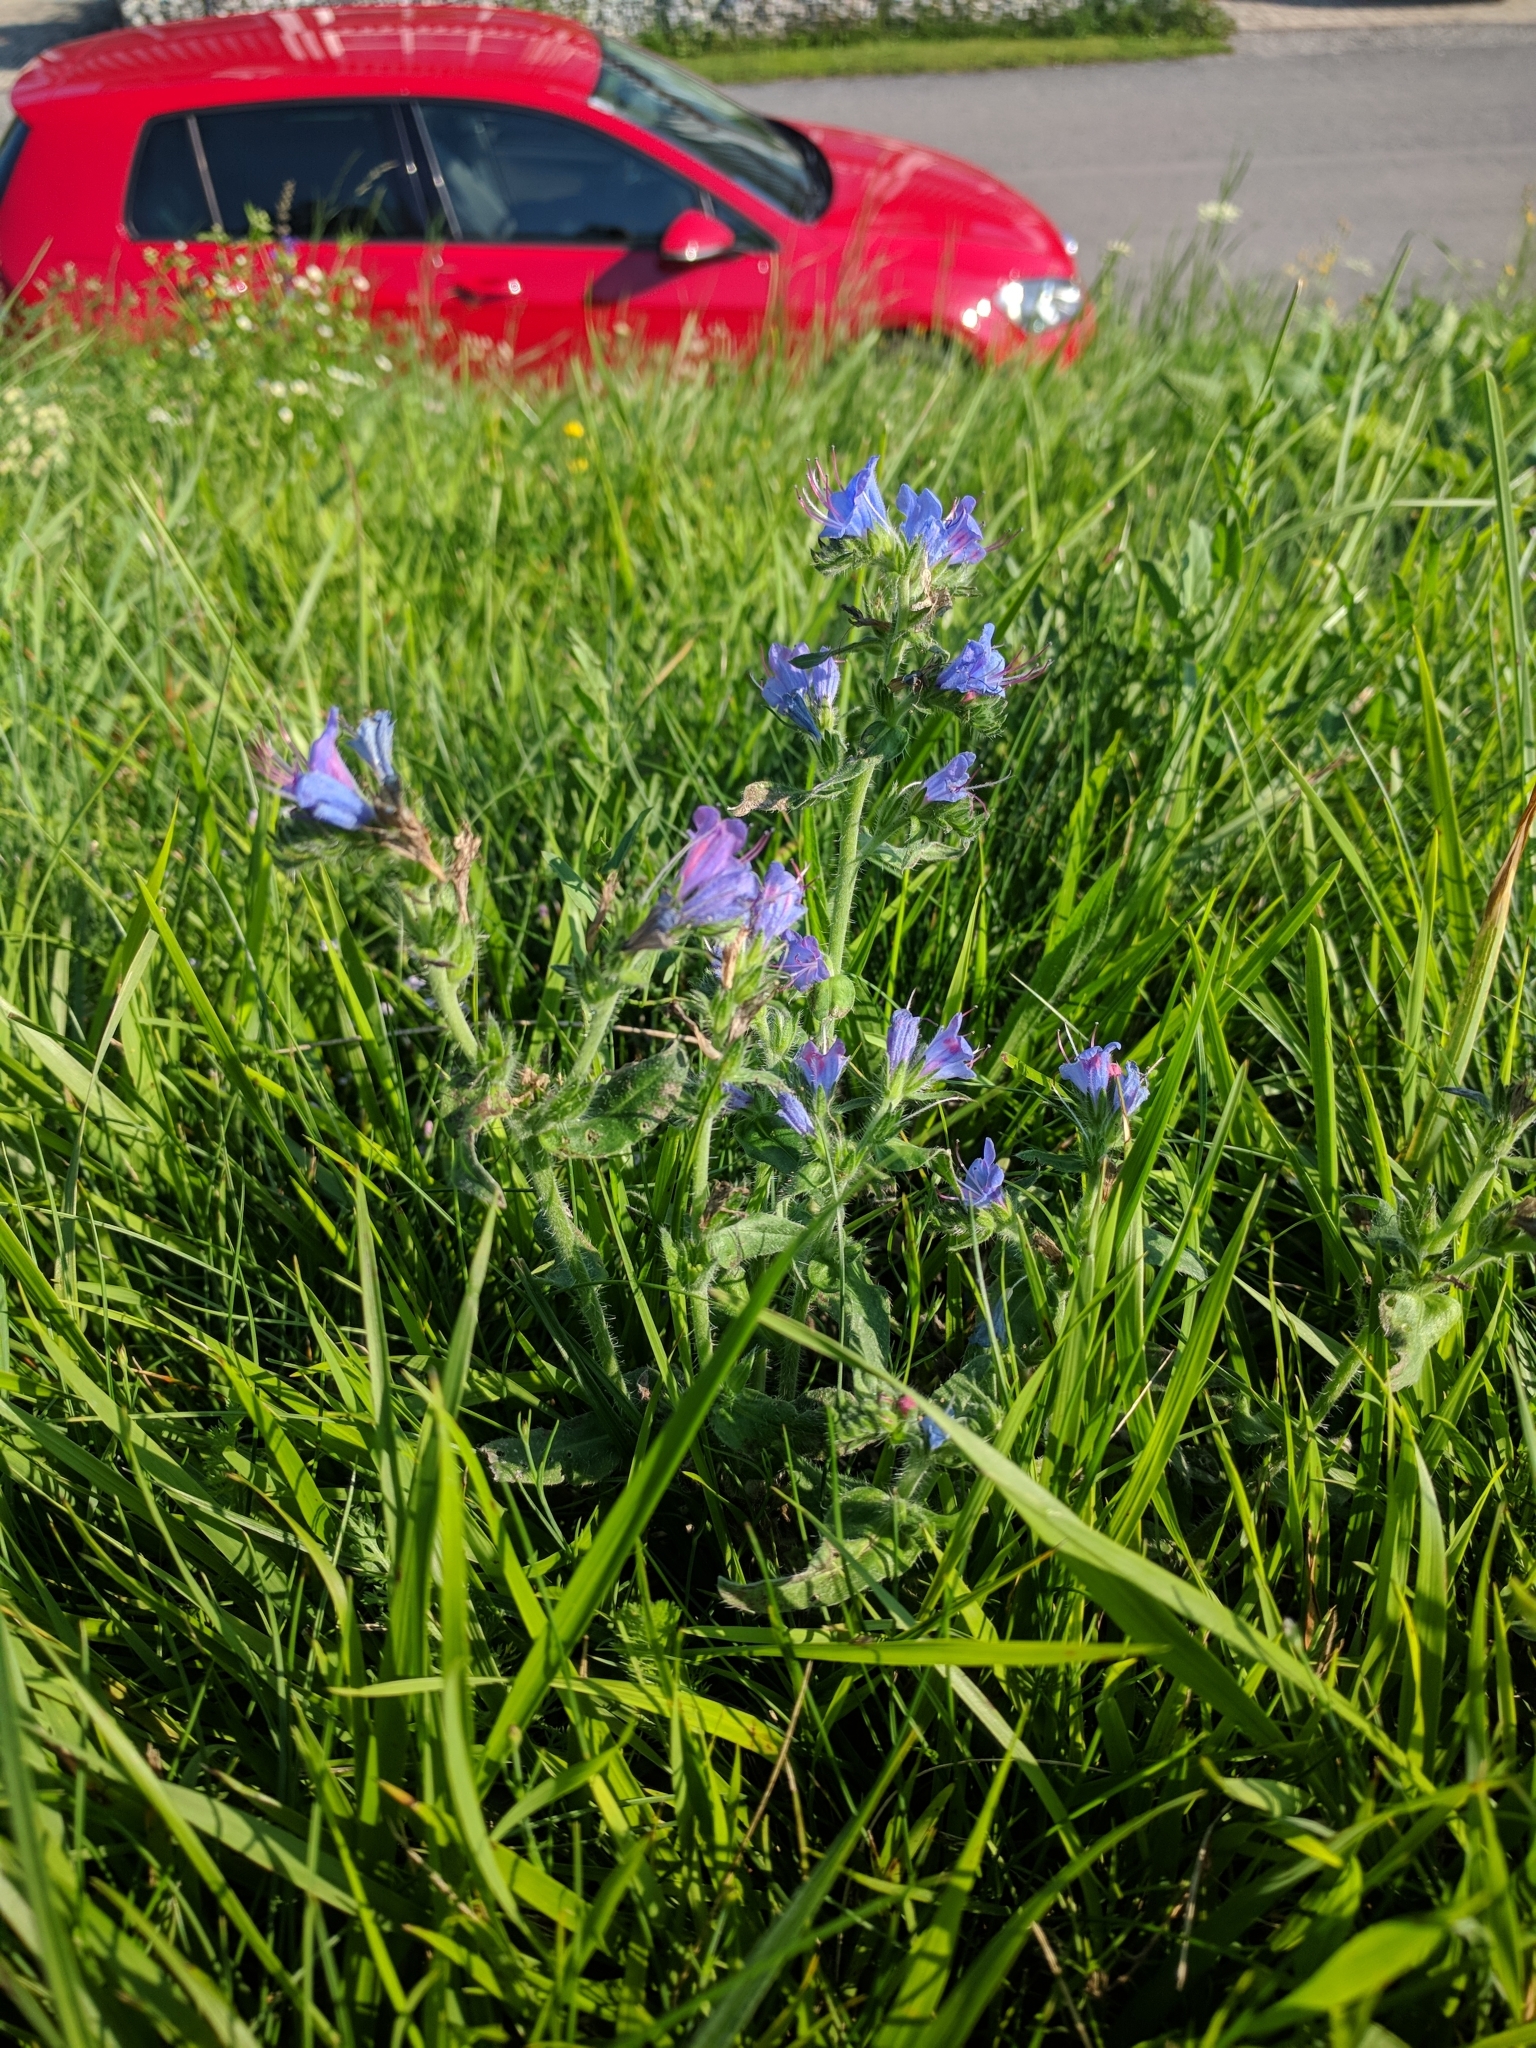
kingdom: Plantae
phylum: Tracheophyta
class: Magnoliopsida
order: Boraginales
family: Boraginaceae
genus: Echium
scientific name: Echium vulgare
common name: Common viper's bugloss
